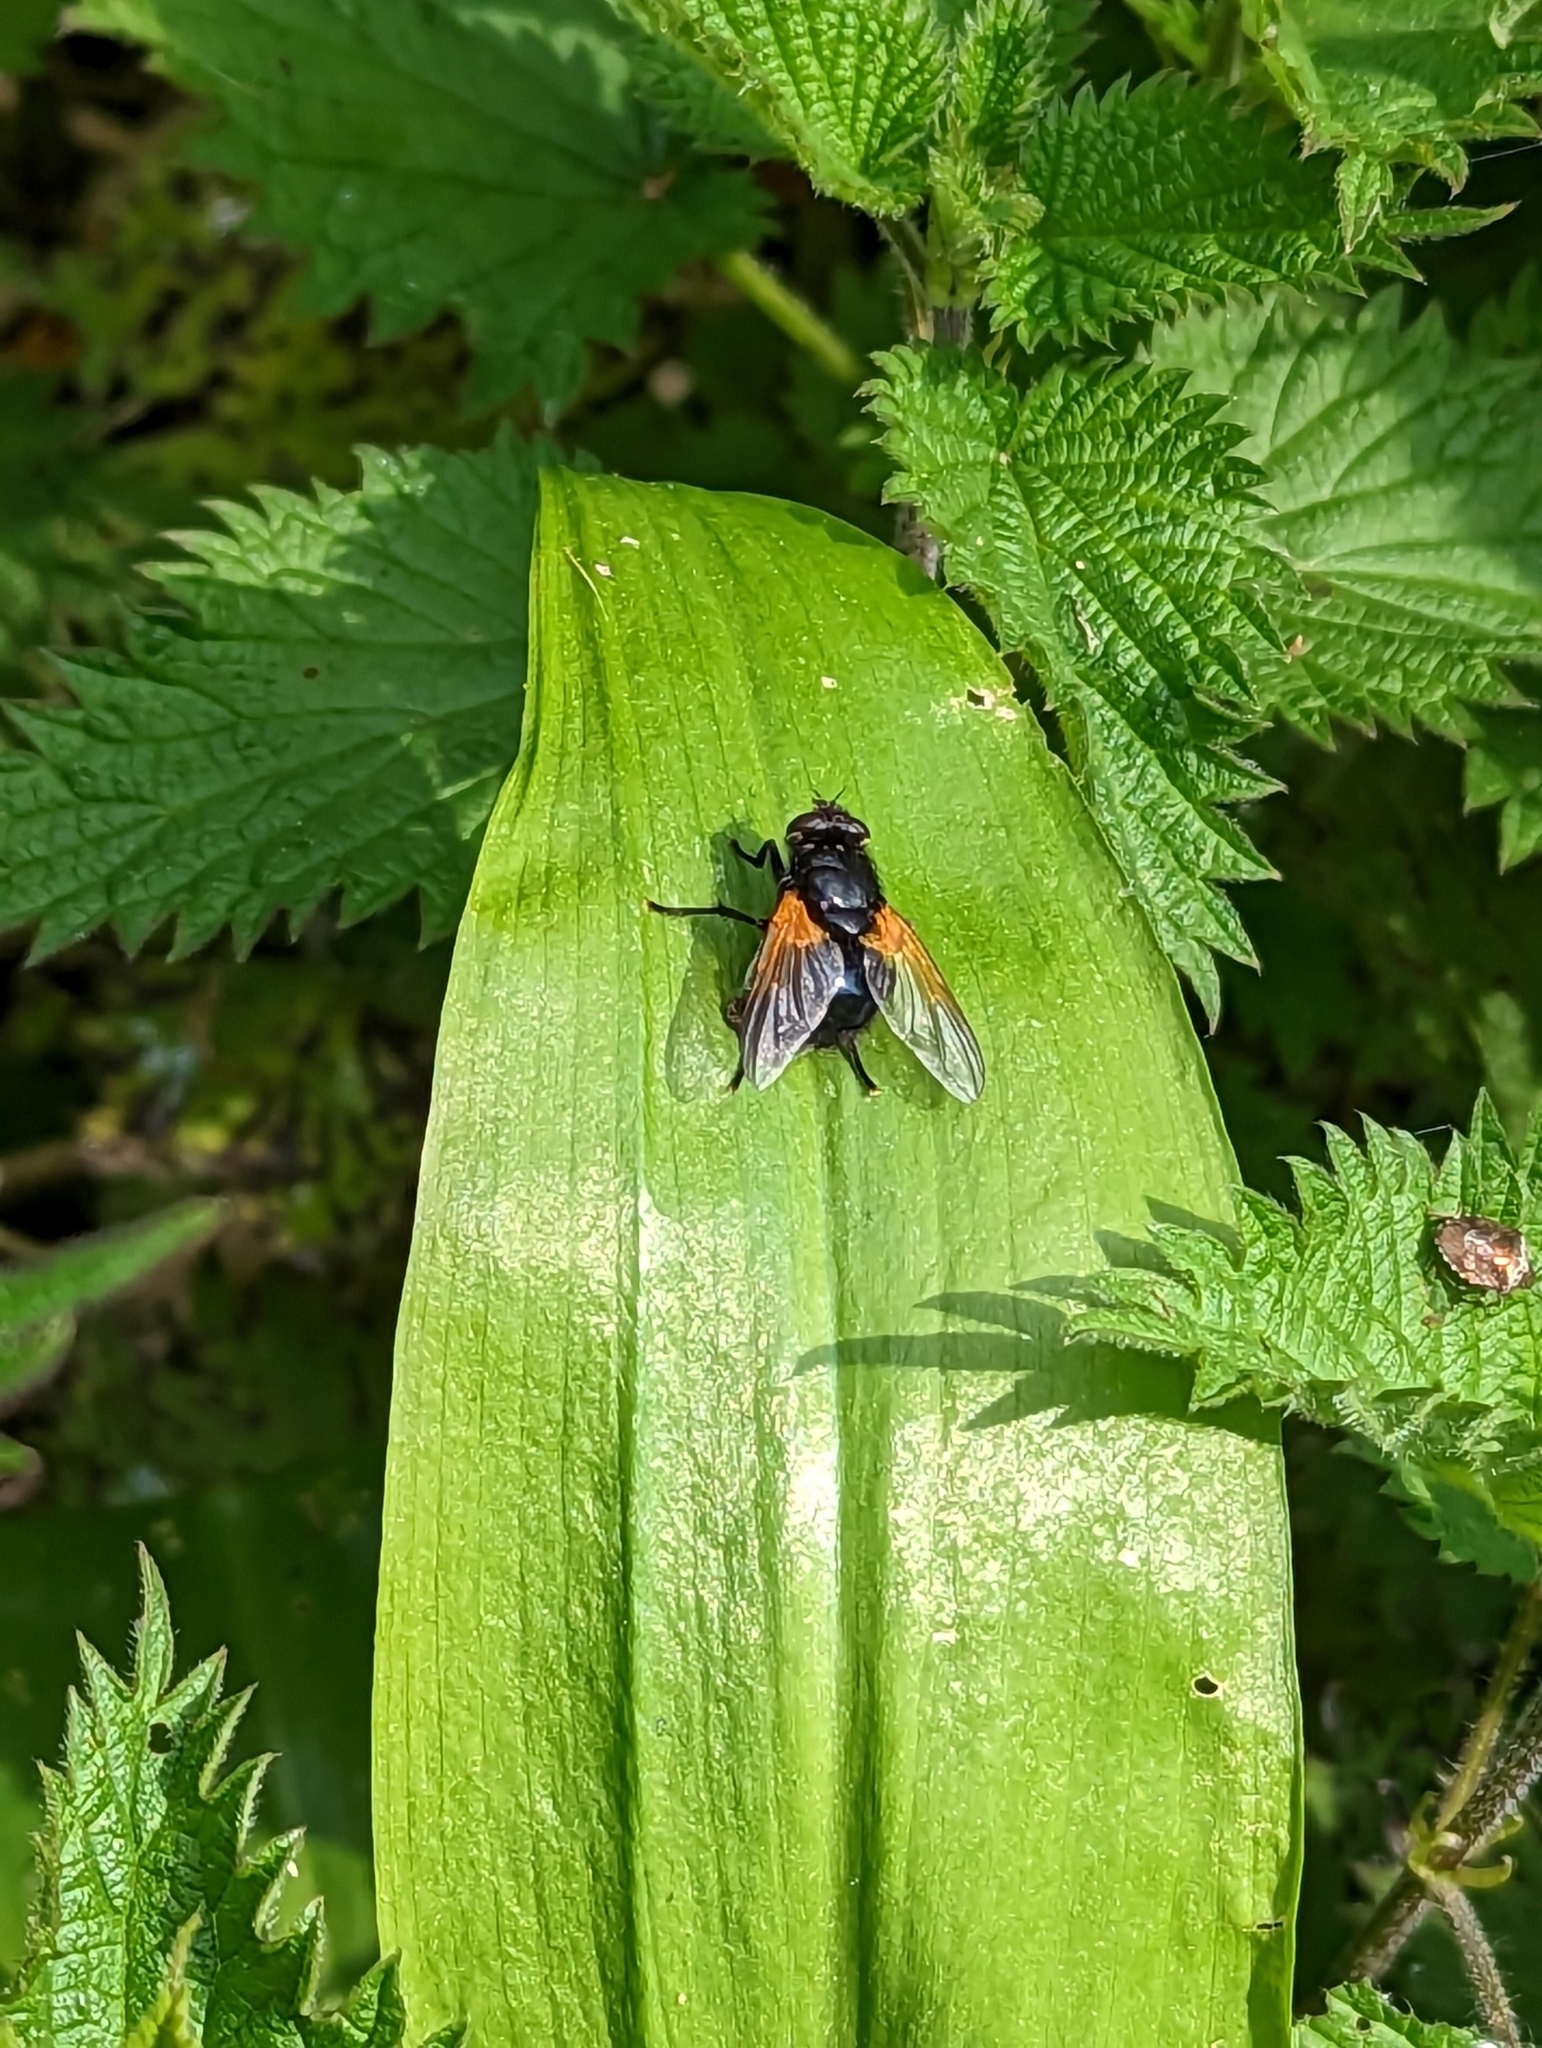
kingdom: Animalia
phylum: Arthropoda
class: Insecta
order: Diptera
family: Muscidae
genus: Mesembrina
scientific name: Mesembrina meridiana
